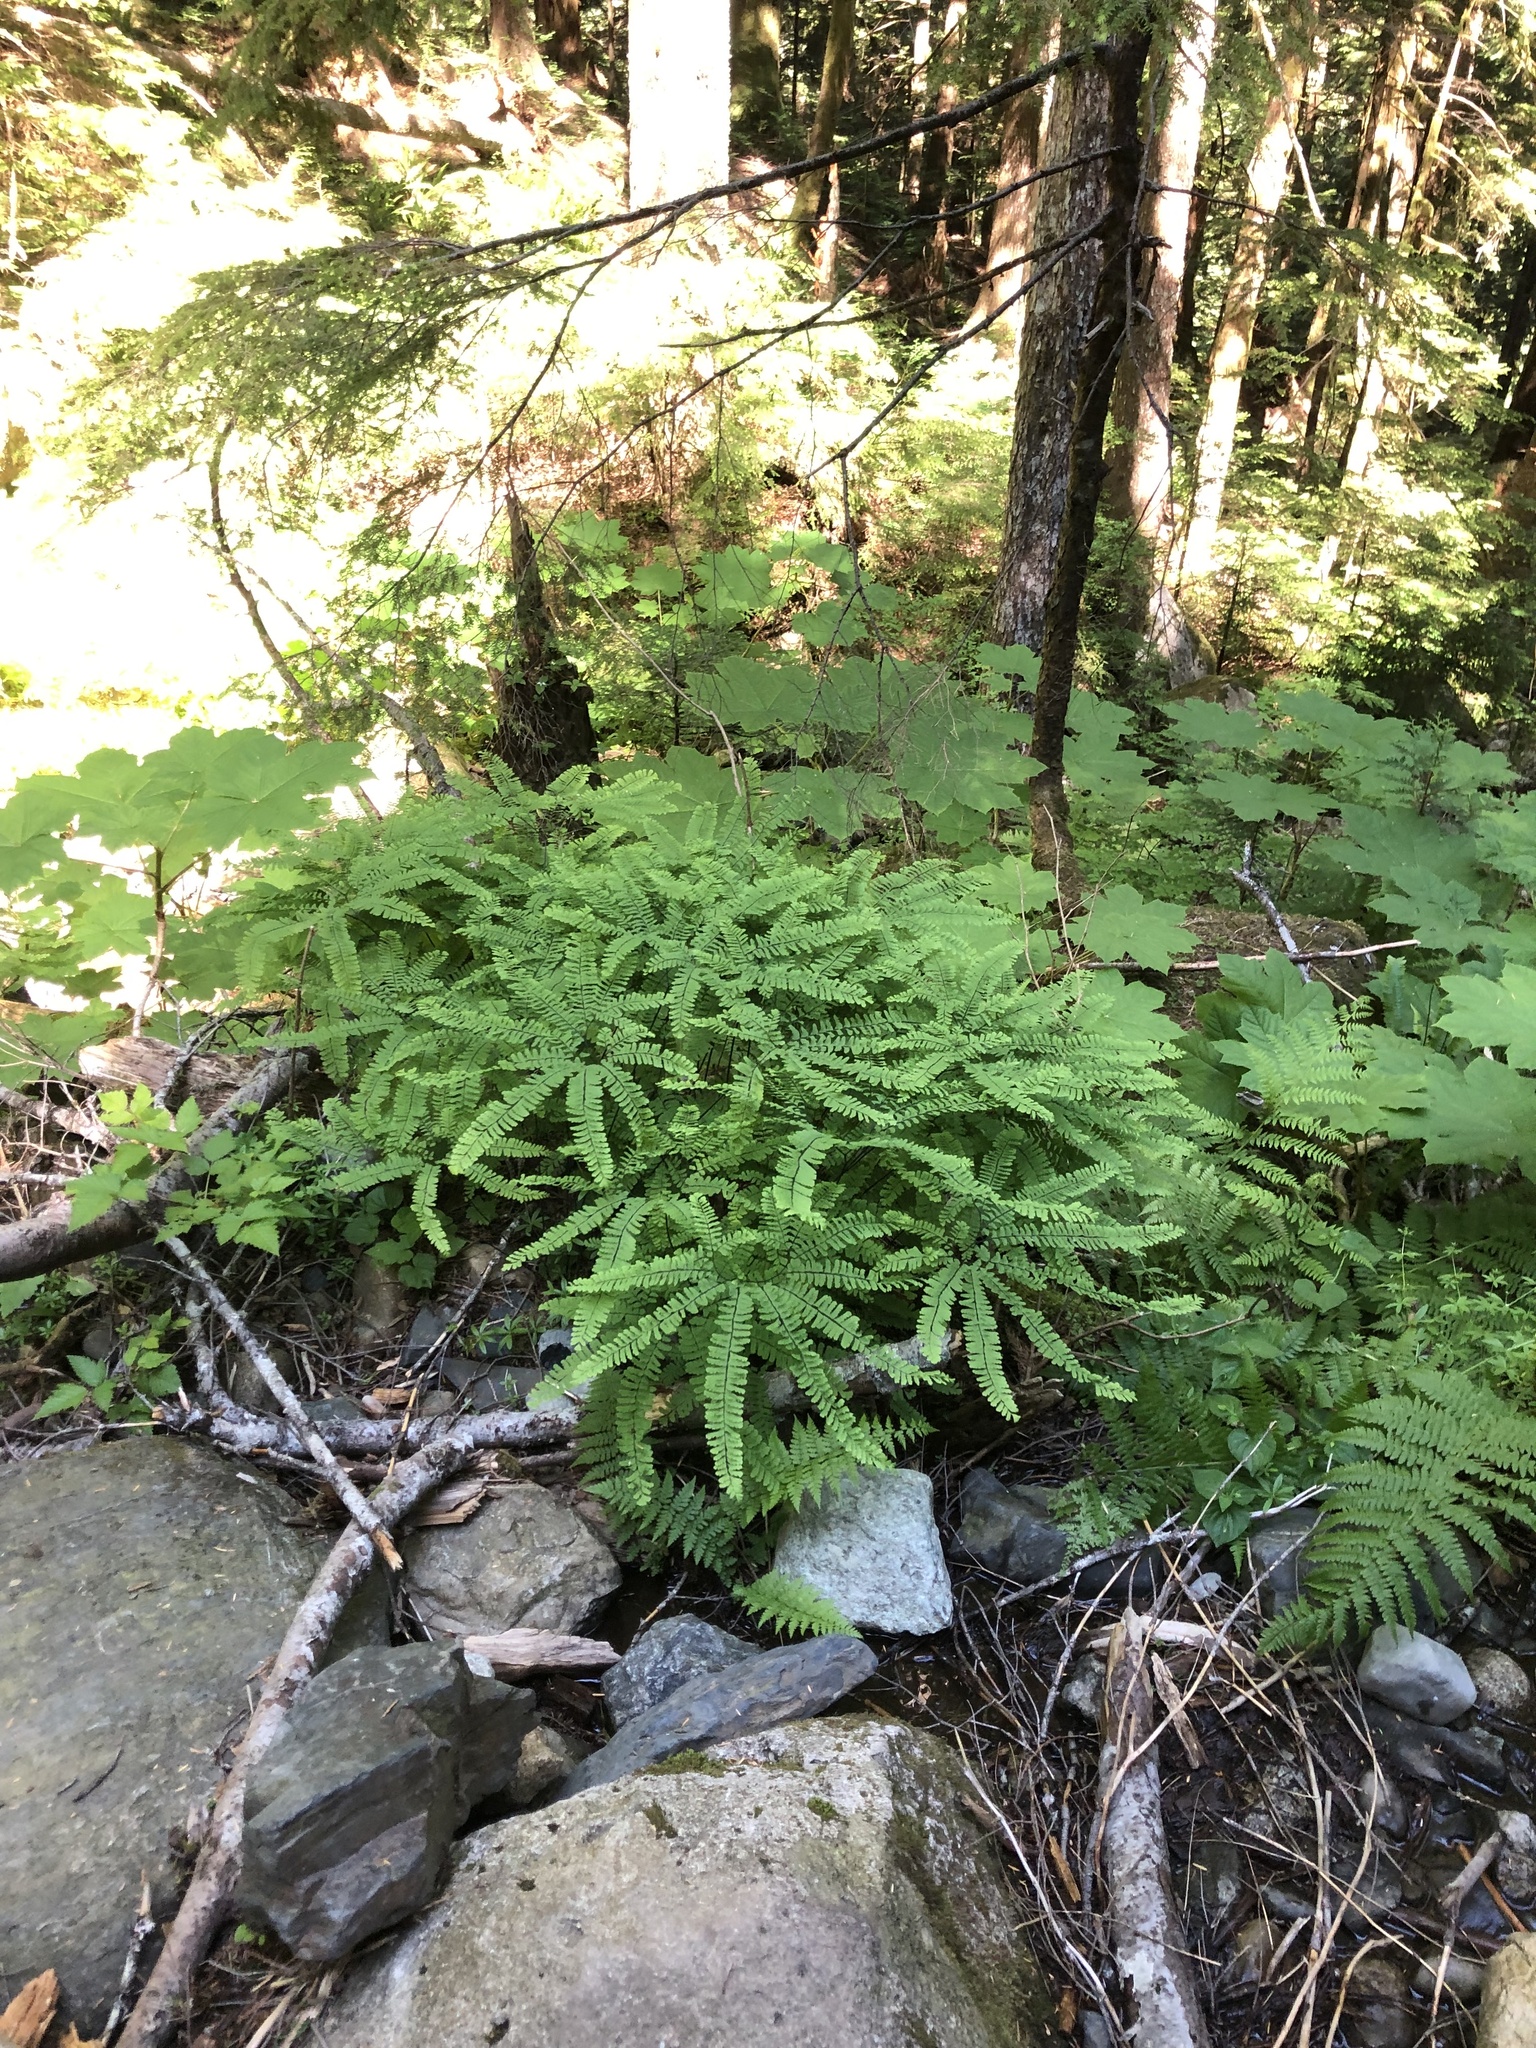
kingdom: Plantae
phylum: Tracheophyta
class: Polypodiopsida
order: Polypodiales
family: Pteridaceae
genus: Adiantum
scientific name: Adiantum aleuticum
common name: Aleutian maidenhair fern
